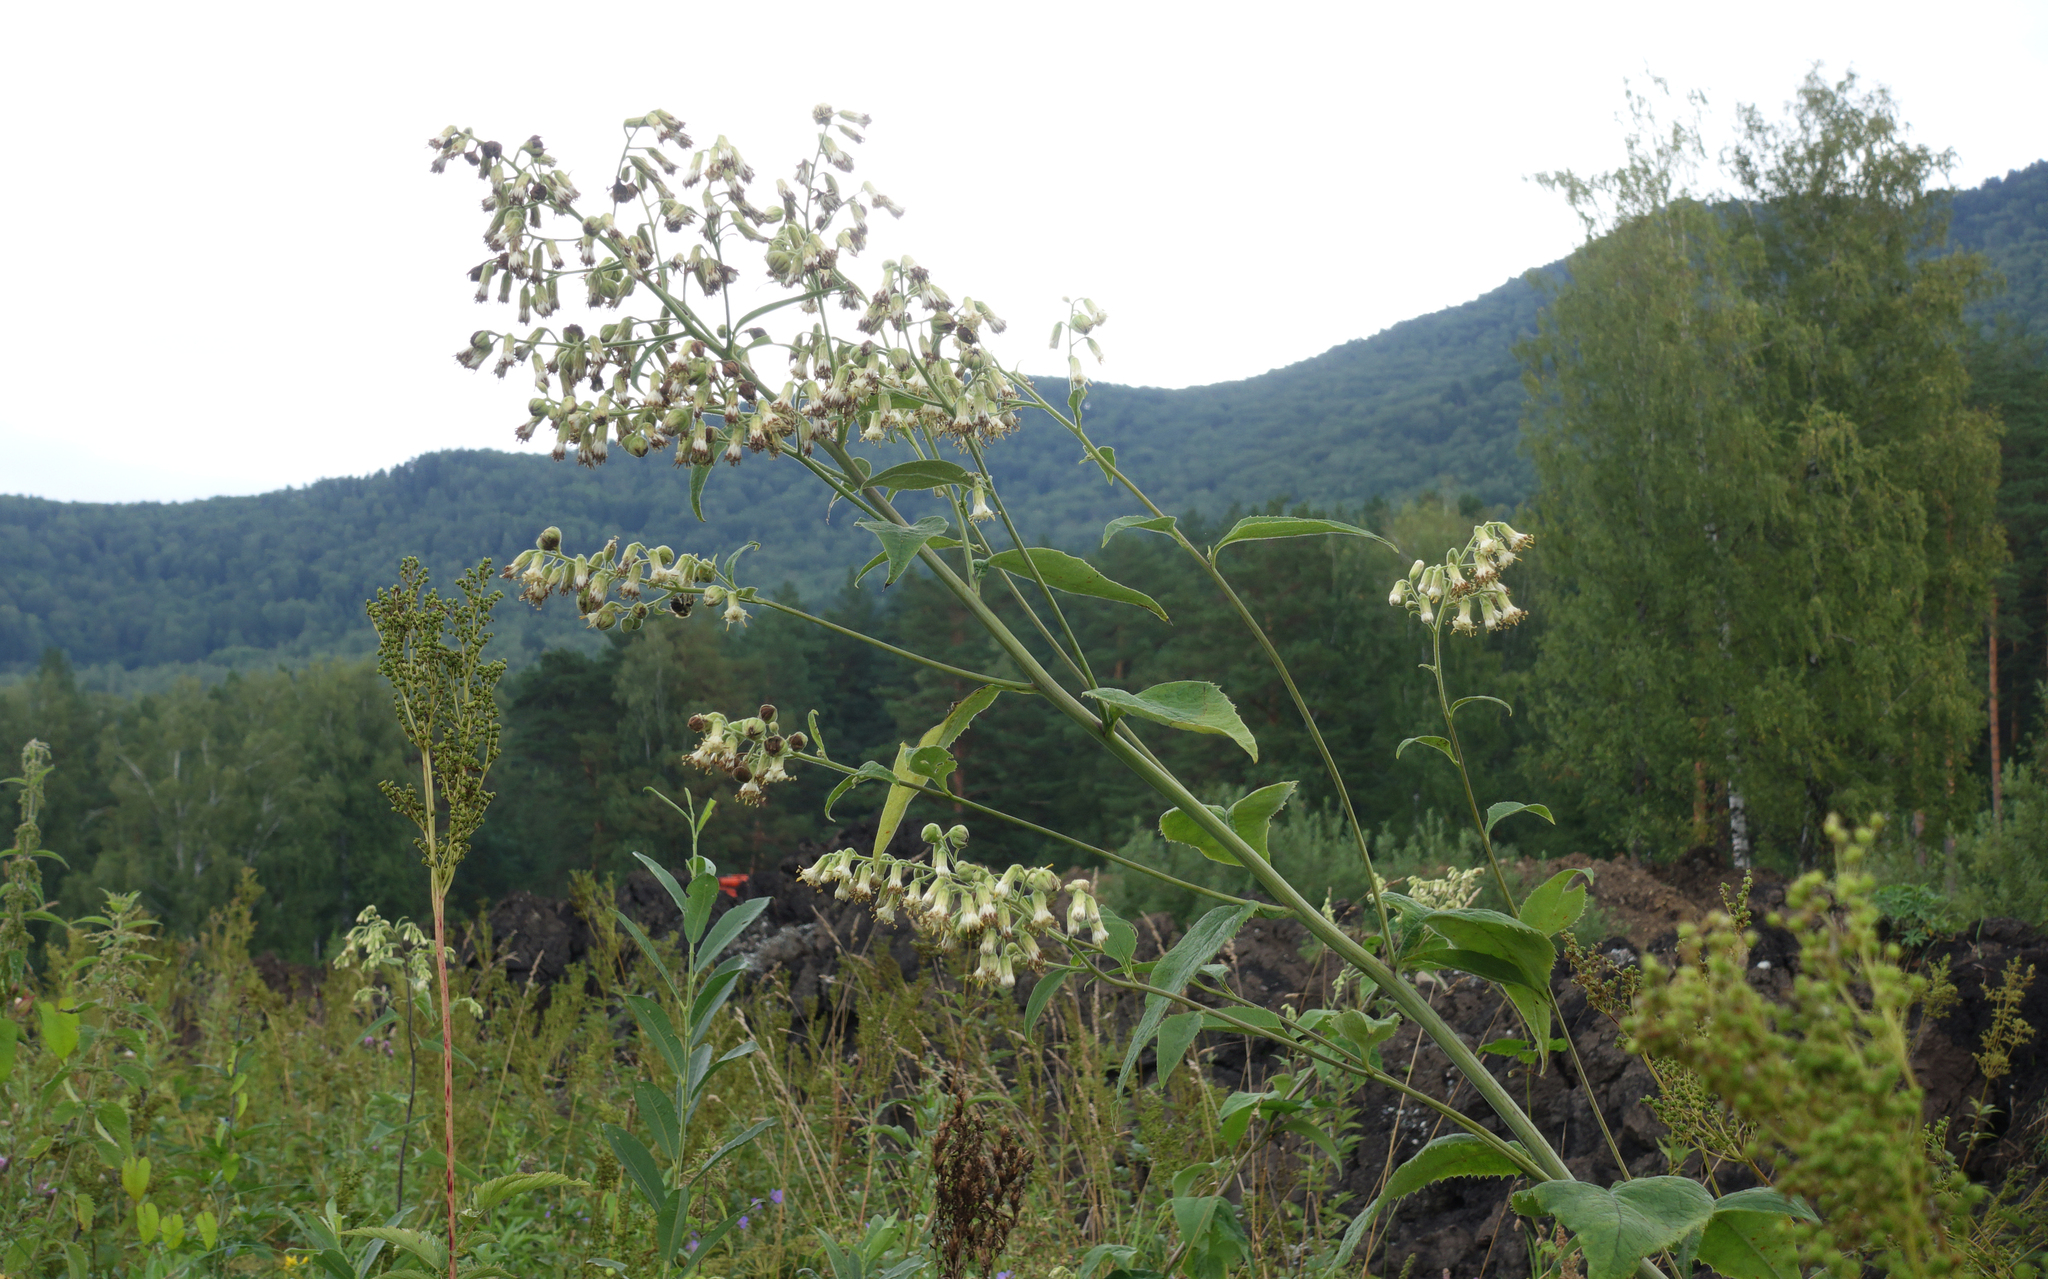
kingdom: Plantae
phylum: Tracheophyta
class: Magnoliopsida
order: Asterales
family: Asteraceae
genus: Parasenecio
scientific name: Parasenecio hastatus
